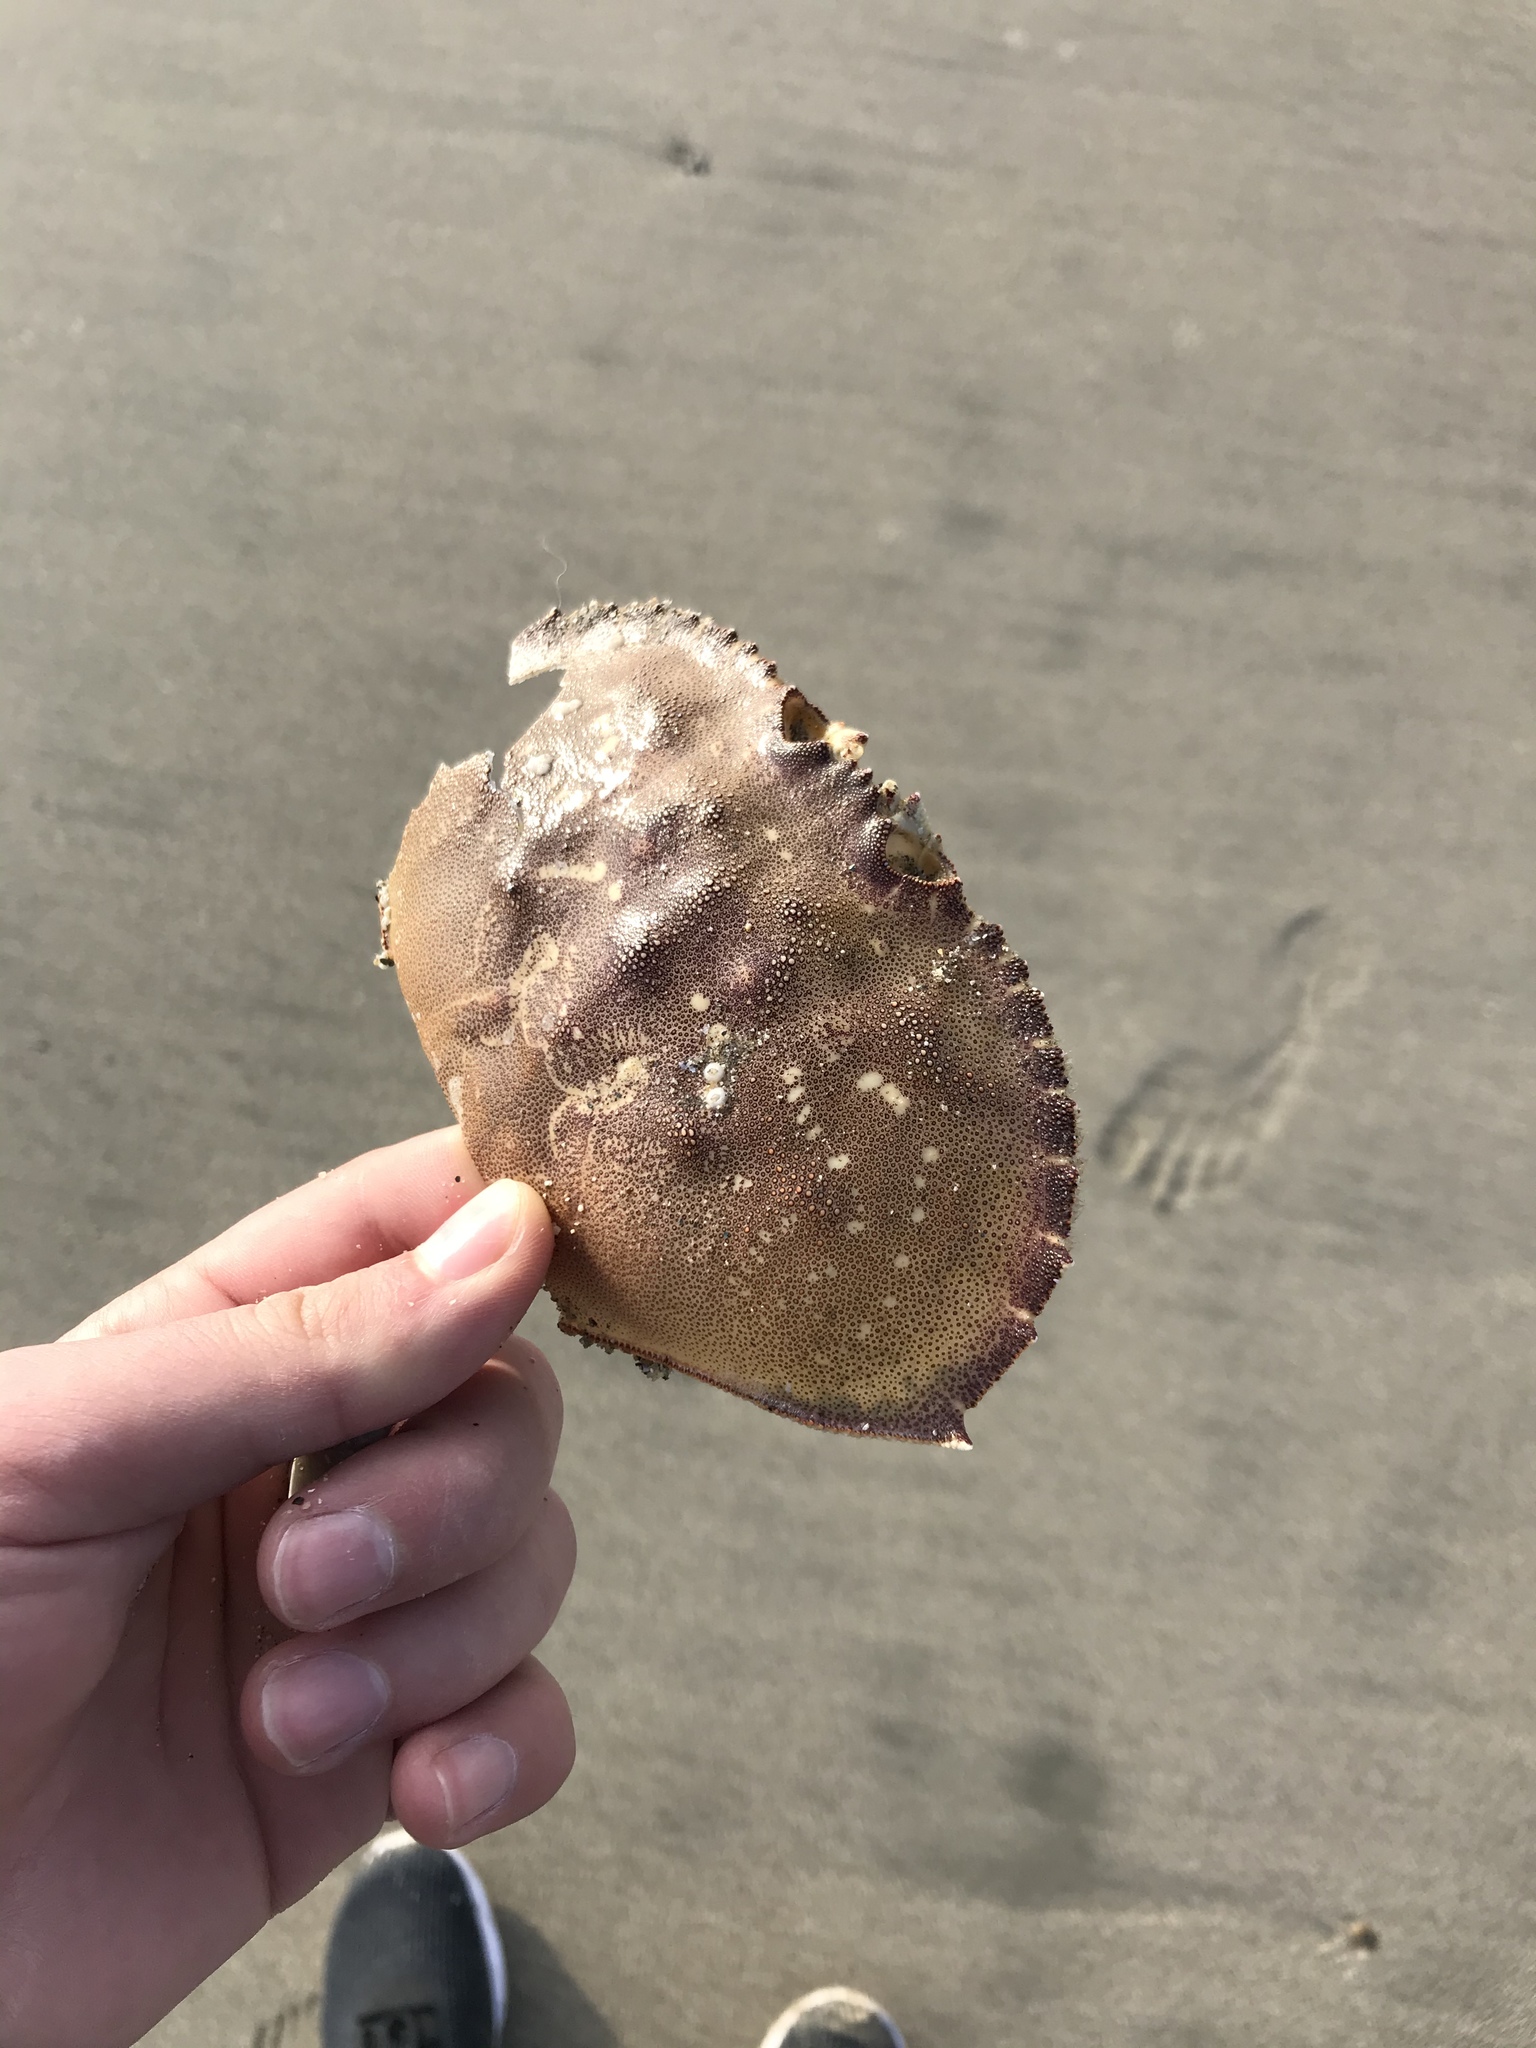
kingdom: Animalia
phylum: Arthropoda
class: Malacostraca
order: Decapoda
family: Cancridae
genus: Metacarcinus
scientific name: Metacarcinus magister
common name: Californian crab
